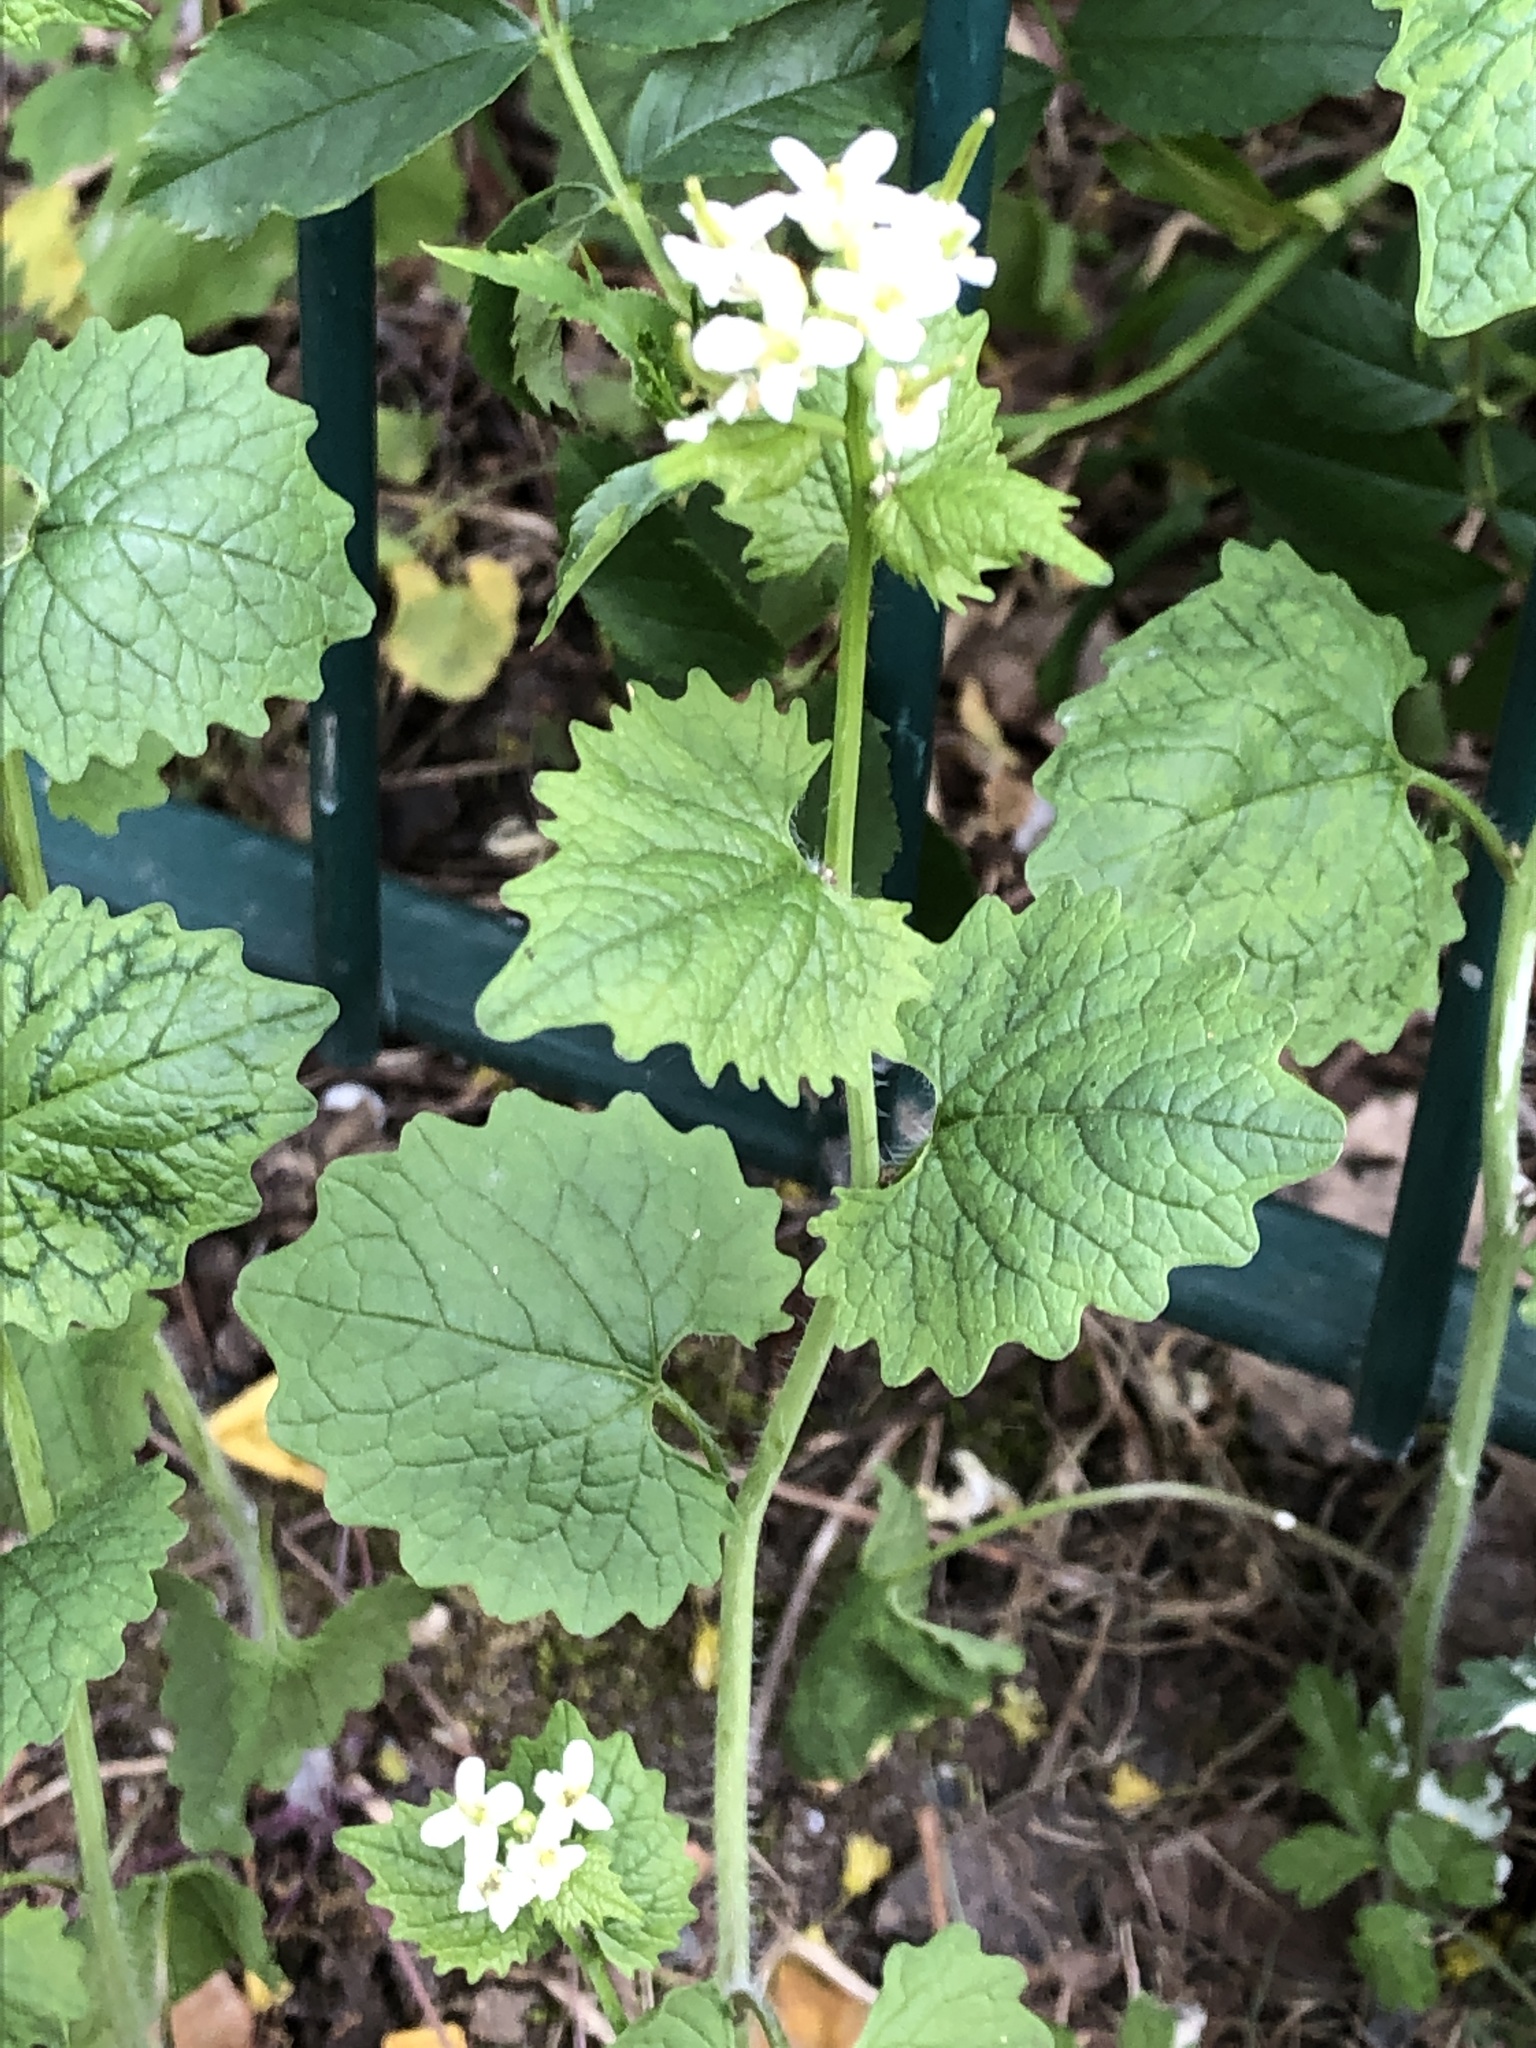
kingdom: Plantae
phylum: Tracheophyta
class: Magnoliopsida
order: Brassicales
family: Brassicaceae
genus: Alliaria
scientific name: Alliaria petiolata
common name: Garlic mustard
